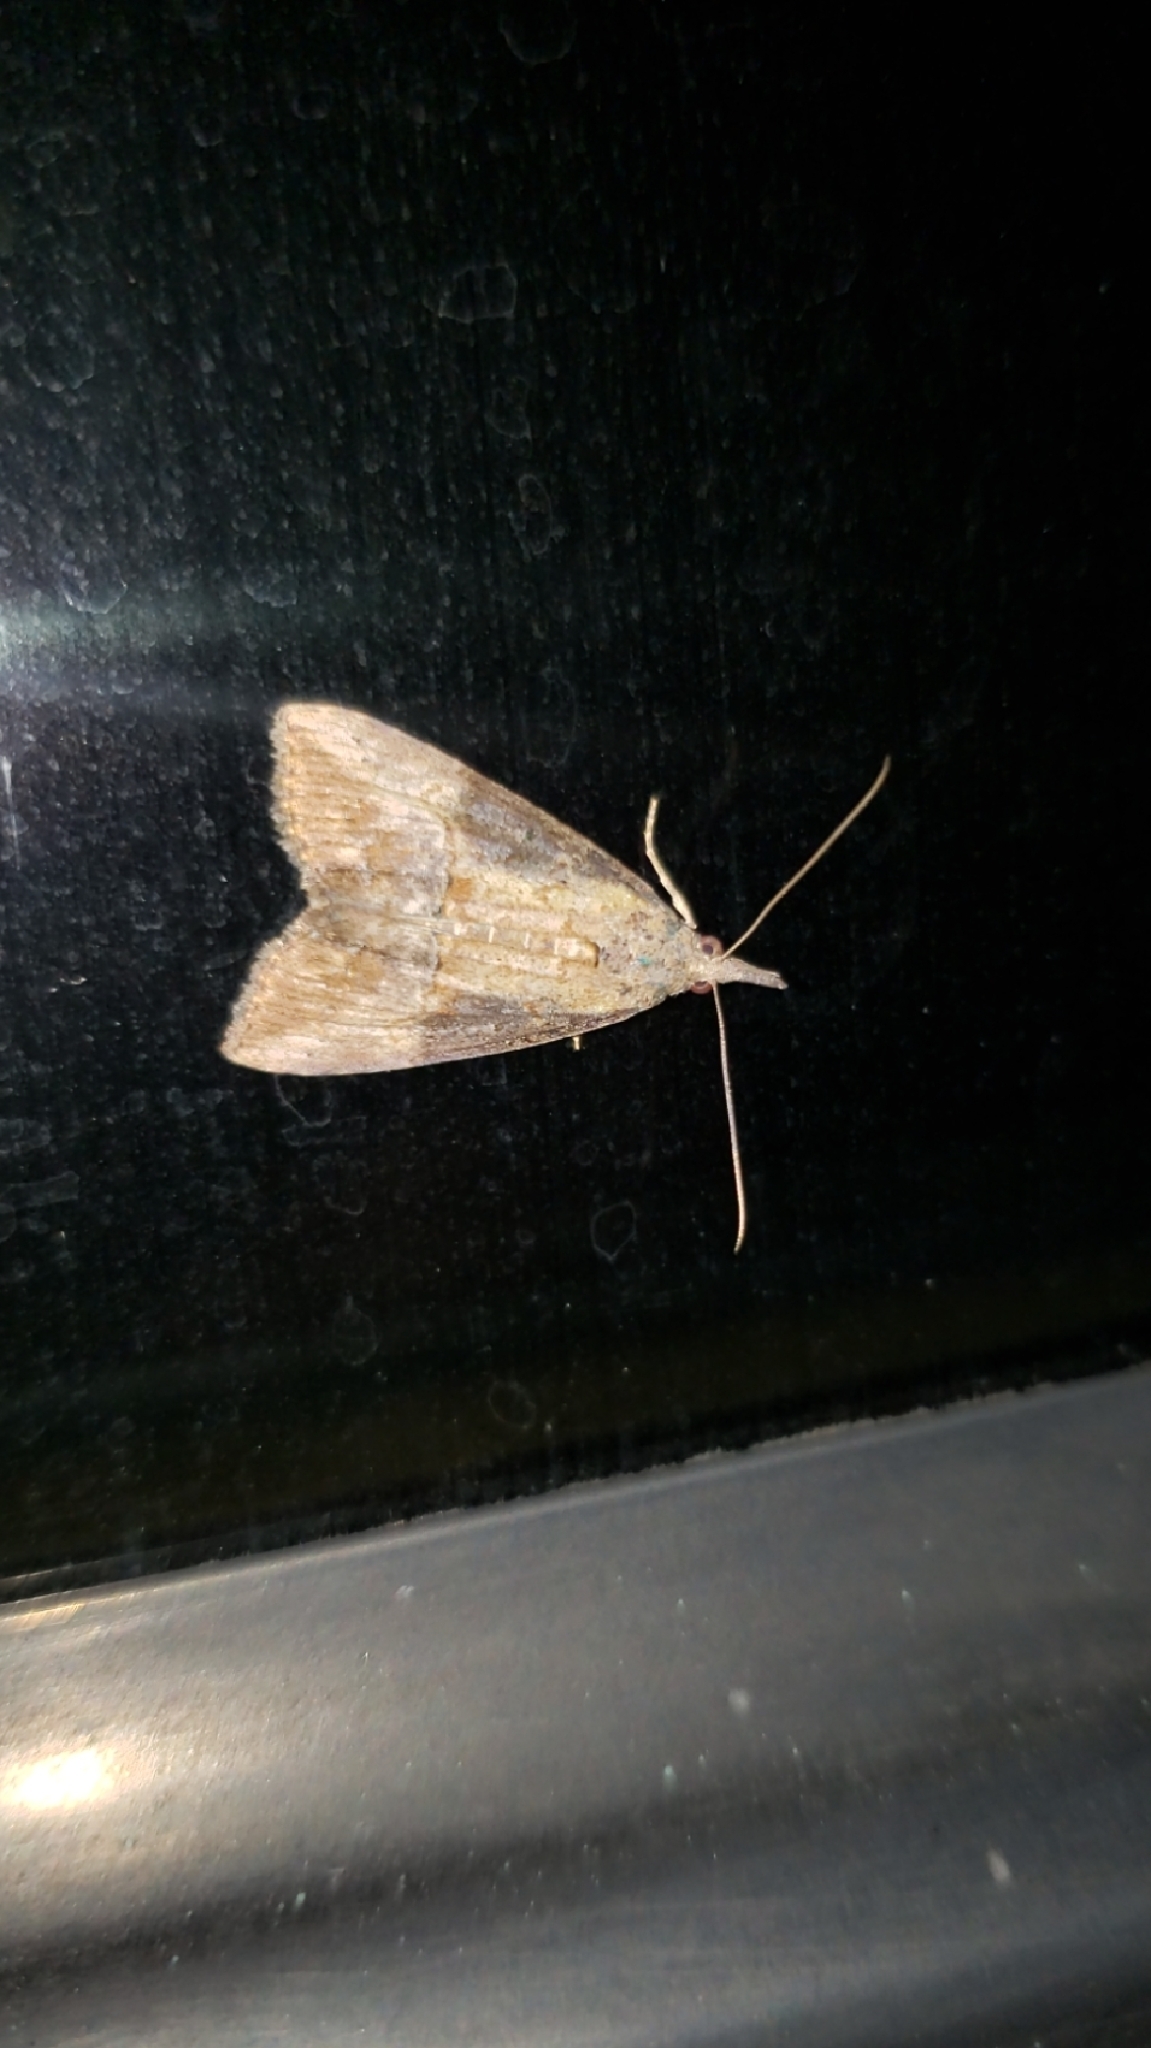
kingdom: Animalia
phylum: Arthropoda
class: Insecta
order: Lepidoptera
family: Erebidae
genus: Hypena
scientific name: Hypena scabra
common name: Green cloverworm
